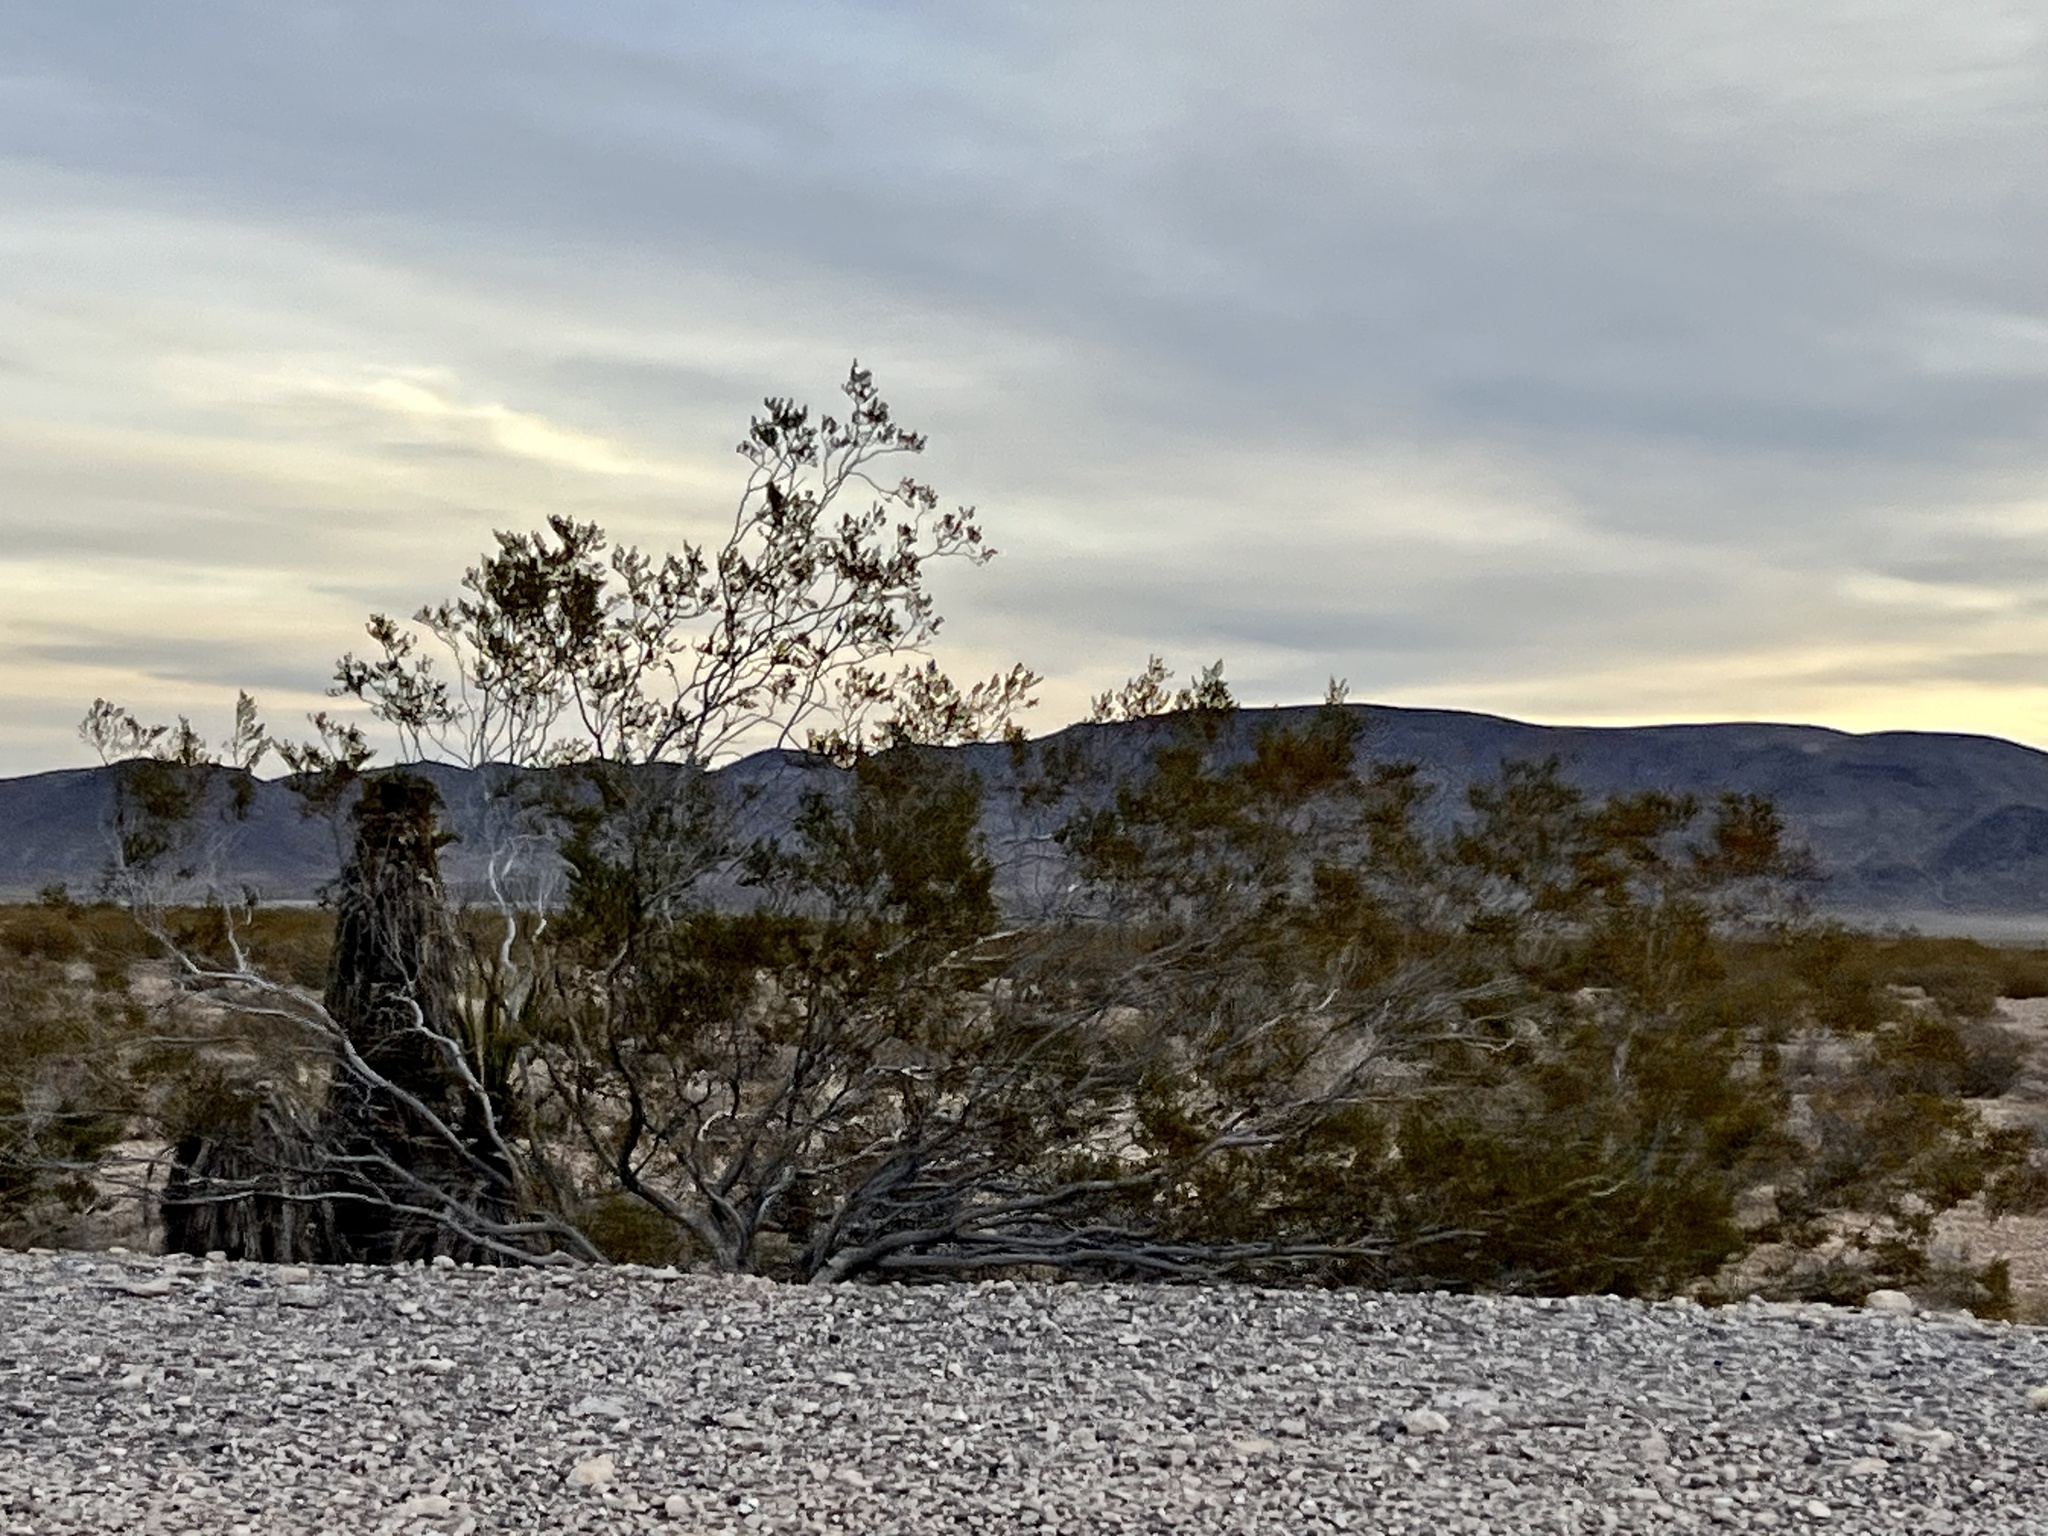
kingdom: Plantae
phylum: Tracheophyta
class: Magnoliopsida
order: Zygophyllales
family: Zygophyllaceae
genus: Larrea
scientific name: Larrea tridentata
